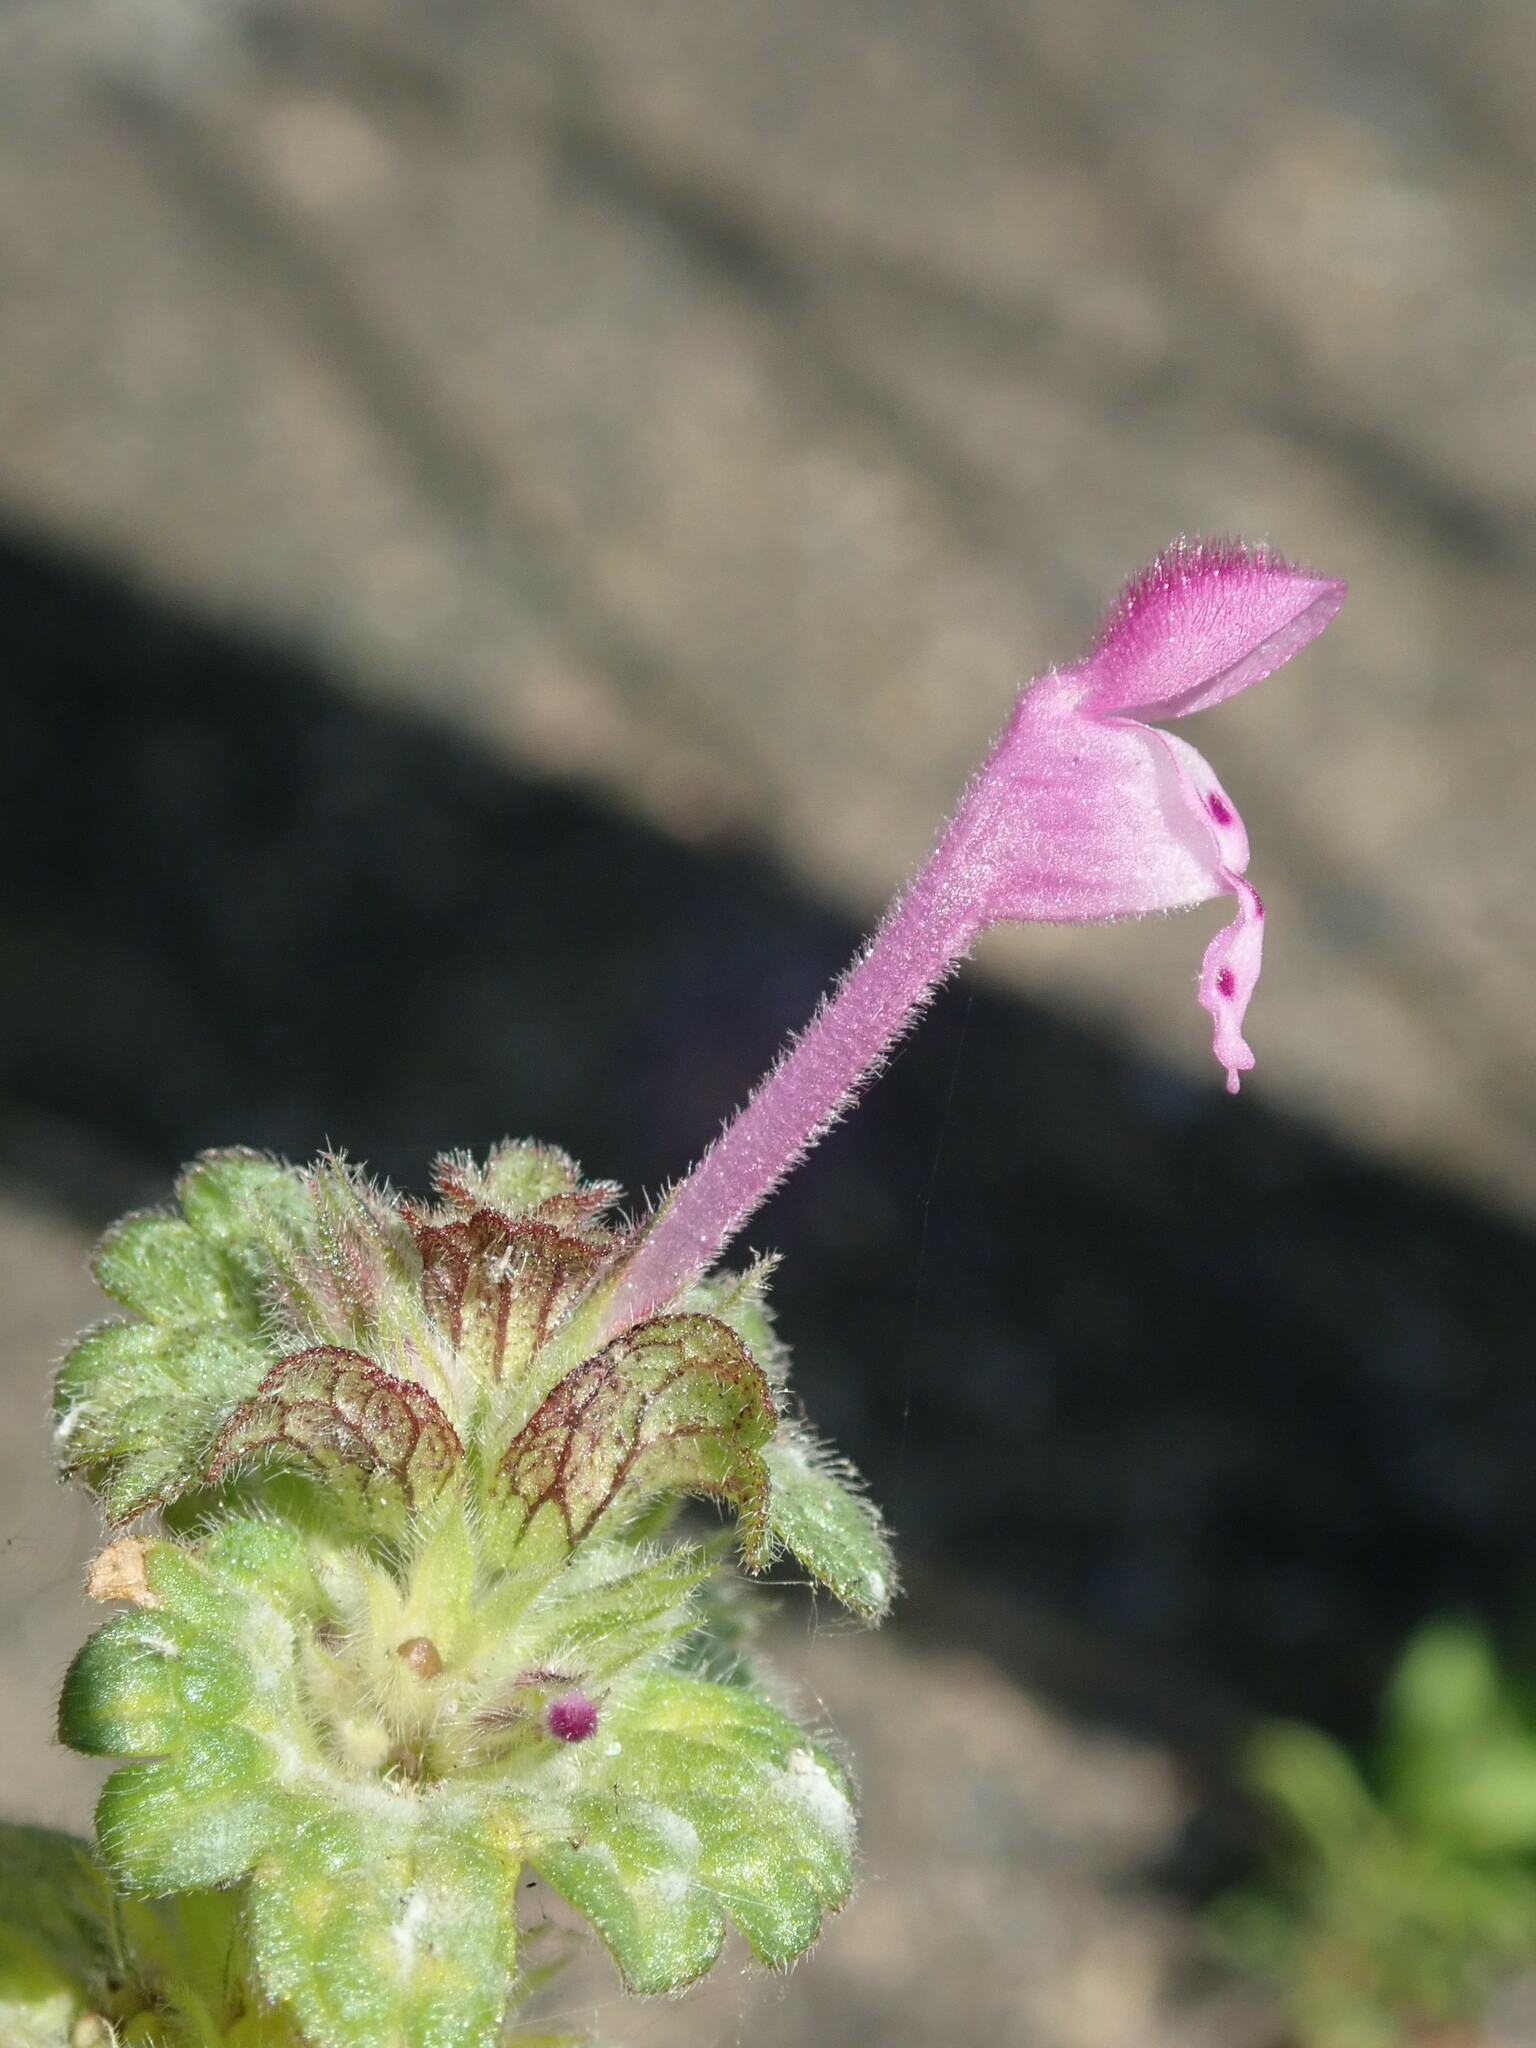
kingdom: Plantae
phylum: Tracheophyta
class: Magnoliopsida
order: Lamiales
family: Lamiaceae
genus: Lamium
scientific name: Lamium amplexicaule
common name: Henbit dead-nettle
